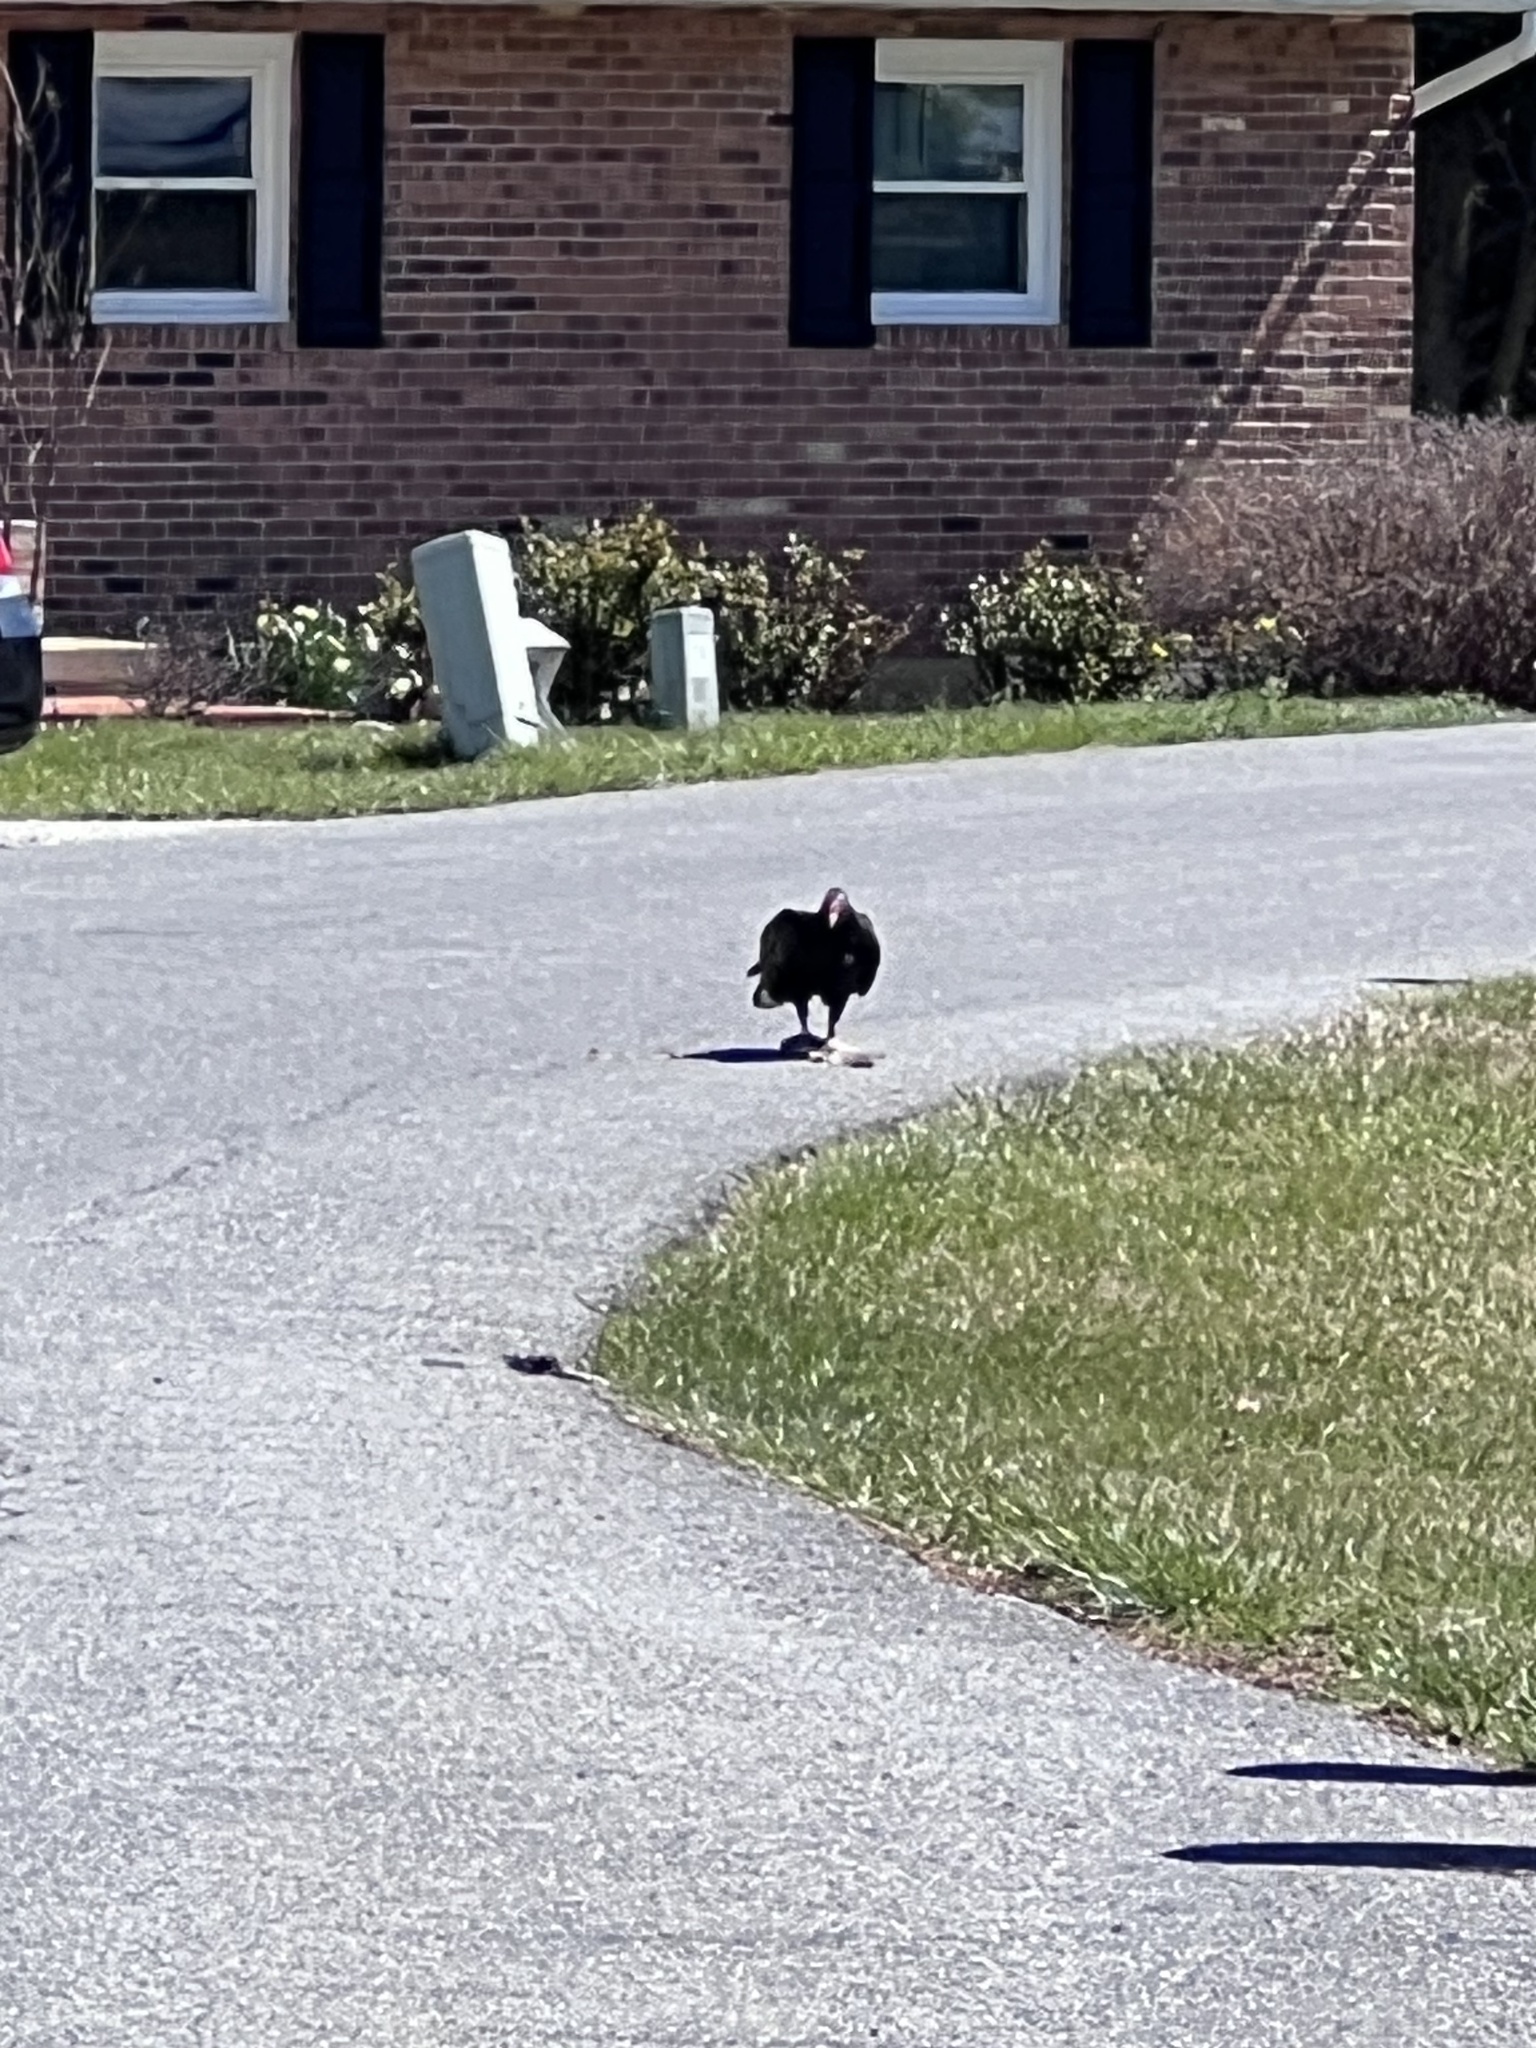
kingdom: Animalia
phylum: Chordata
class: Aves
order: Accipitriformes
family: Cathartidae
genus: Cathartes
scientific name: Cathartes aura
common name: Turkey vulture
